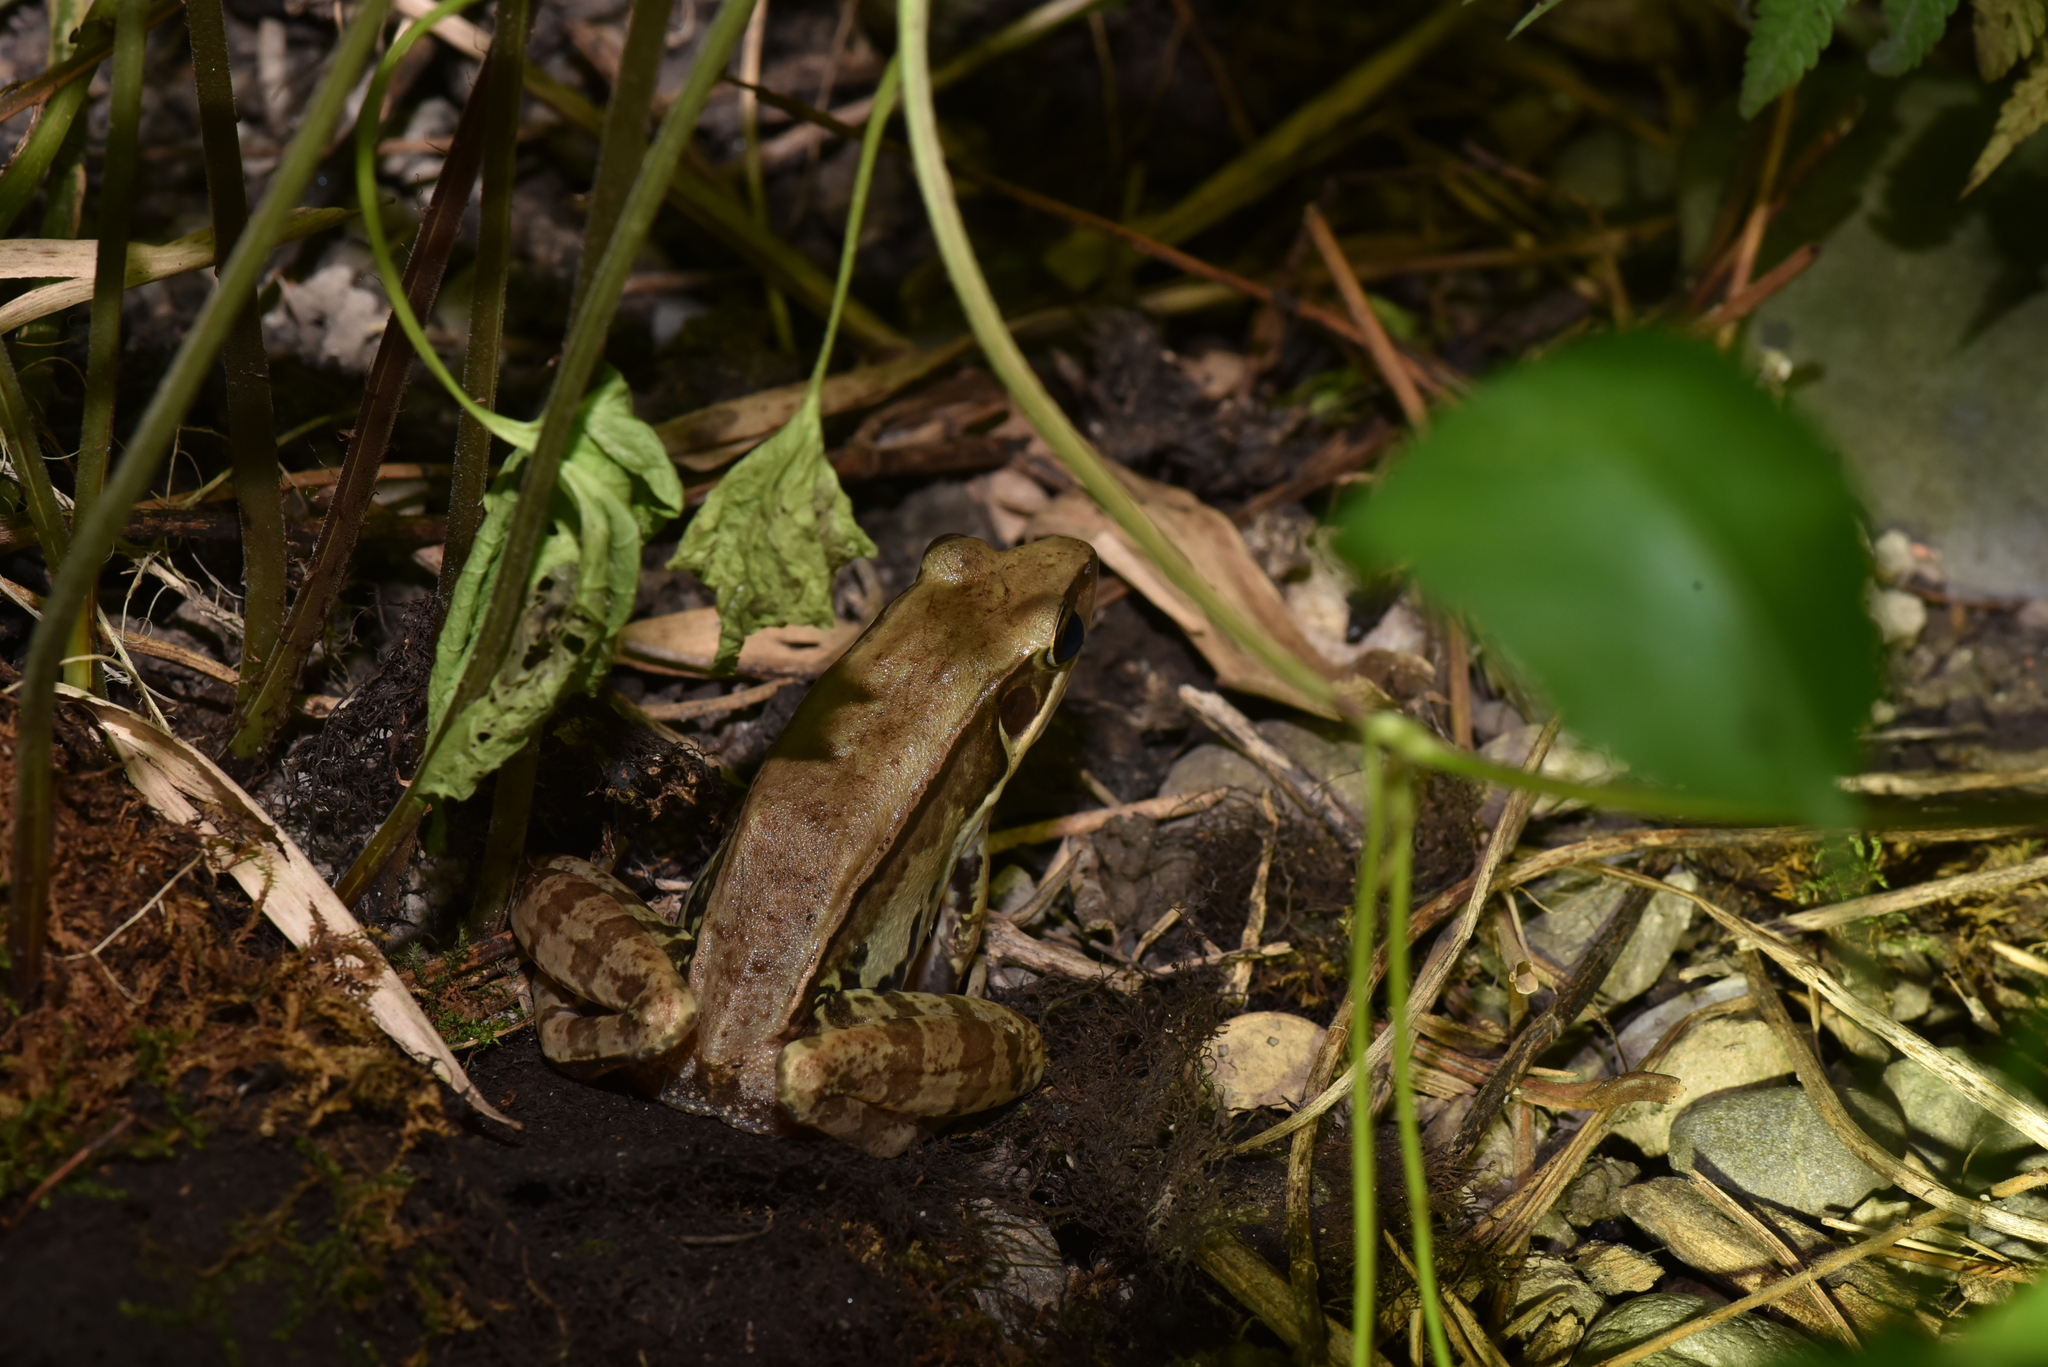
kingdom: Animalia
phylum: Chordata
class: Amphibia
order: Anura
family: Ranidae
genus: Sylvirana
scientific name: Sylvirana guentheri
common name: Guenther's amoy frog
